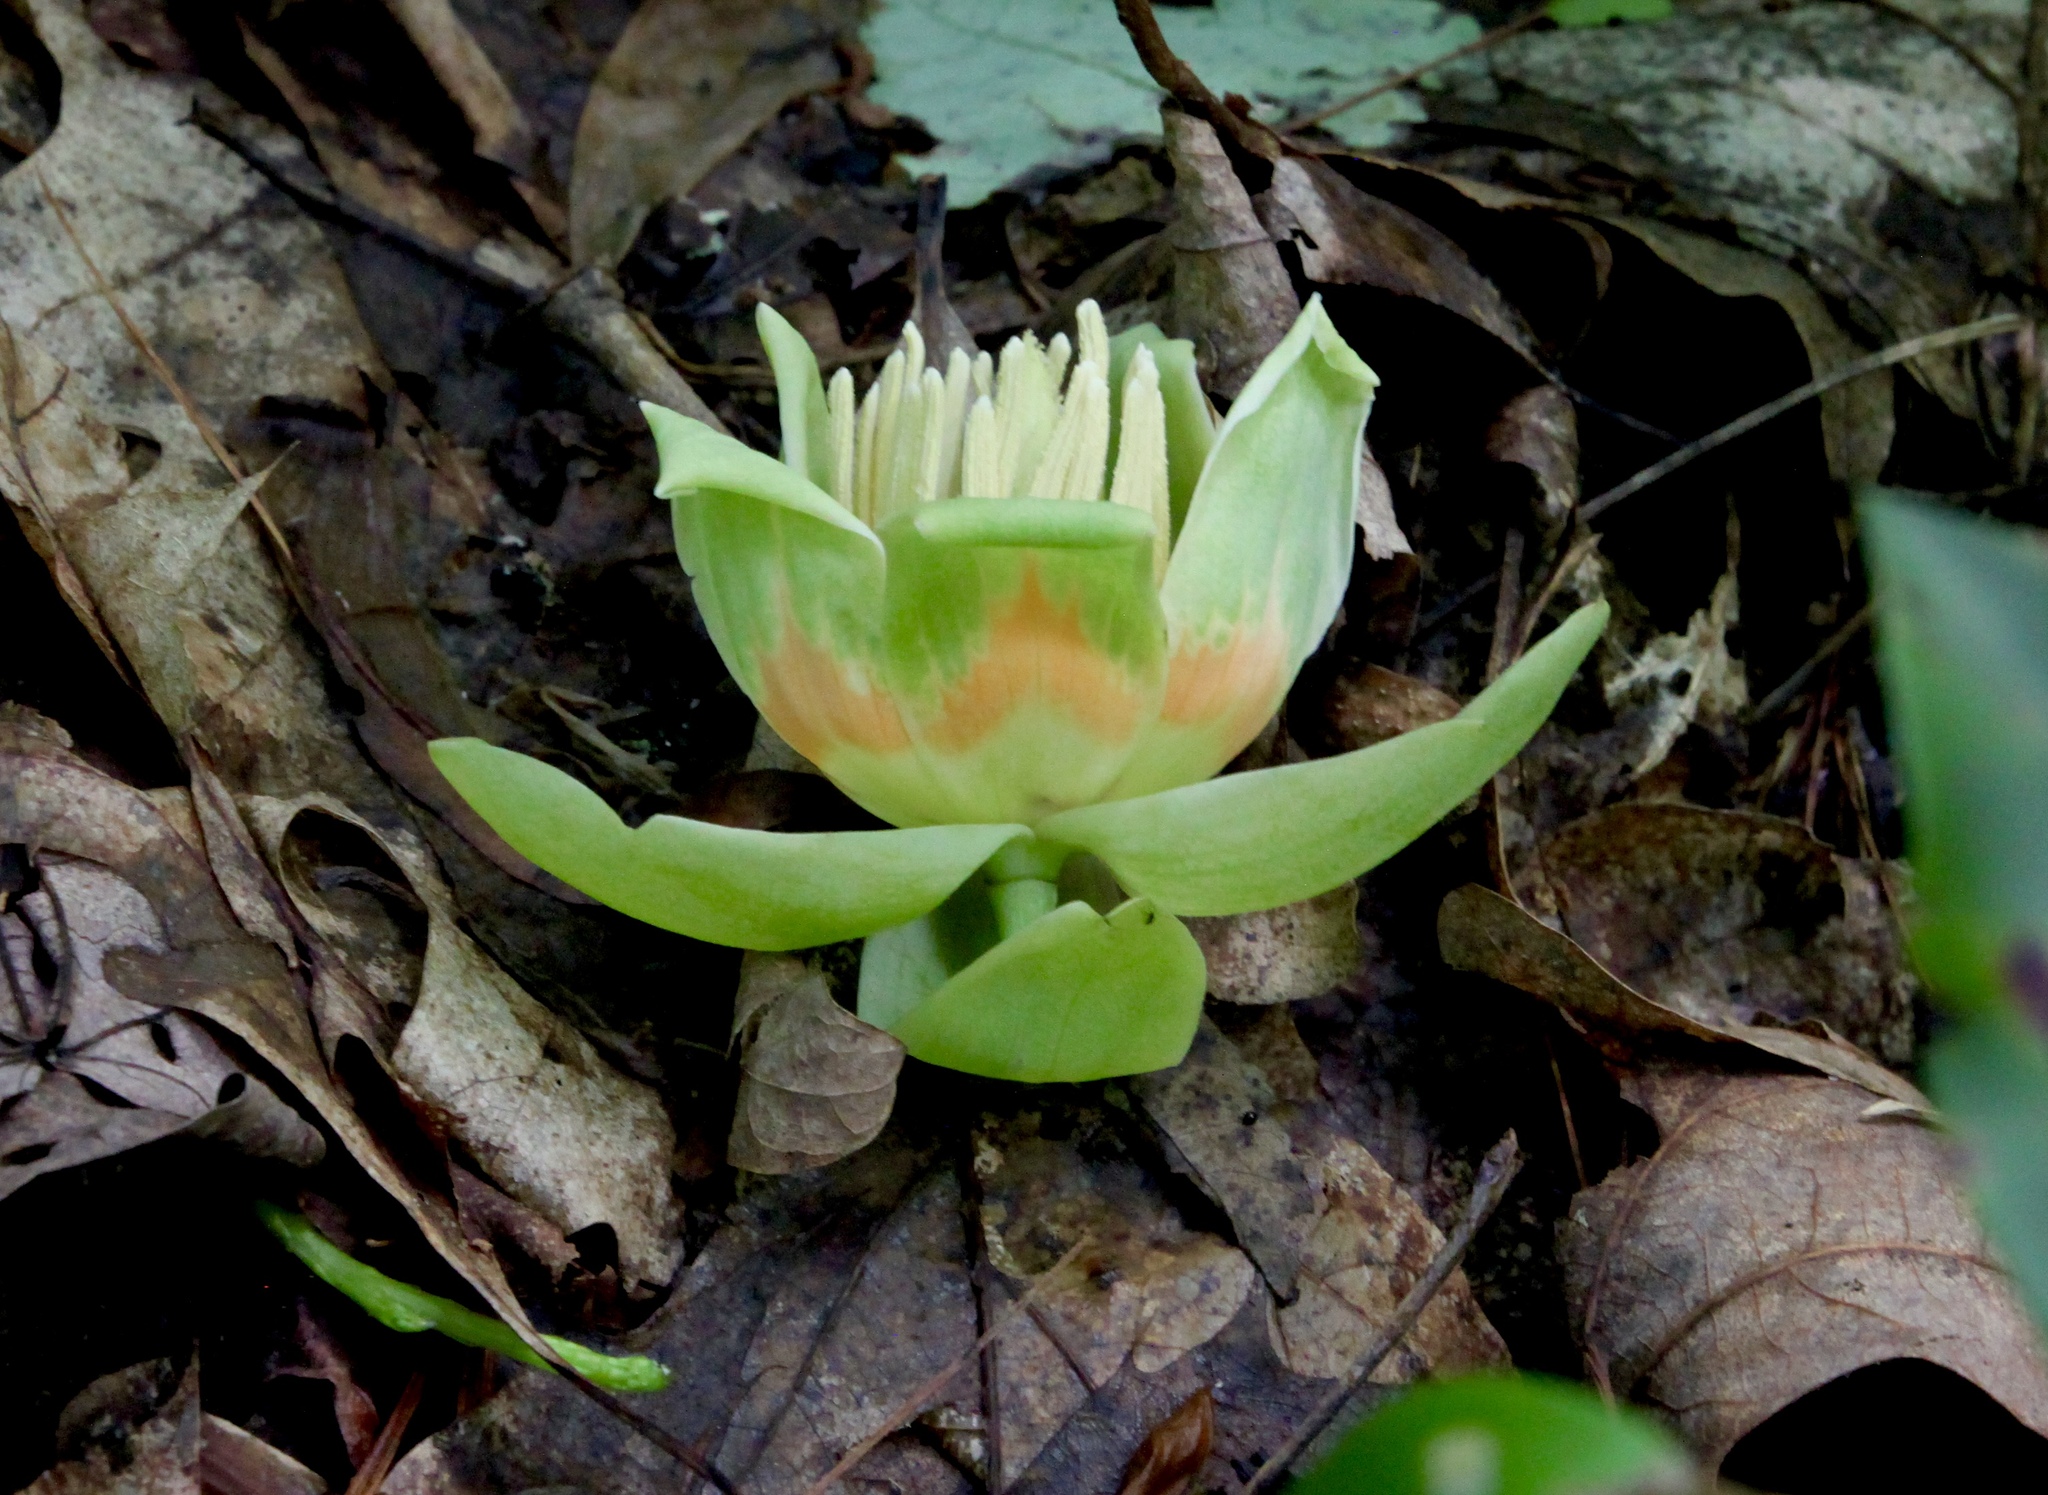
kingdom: Plantae
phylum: Tracheophyta
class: Magnoliopsida
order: Magnoliales
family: Magnoliaceae
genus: Liriodendron
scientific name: Liriodendron tulipifera
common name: Tulip tree
